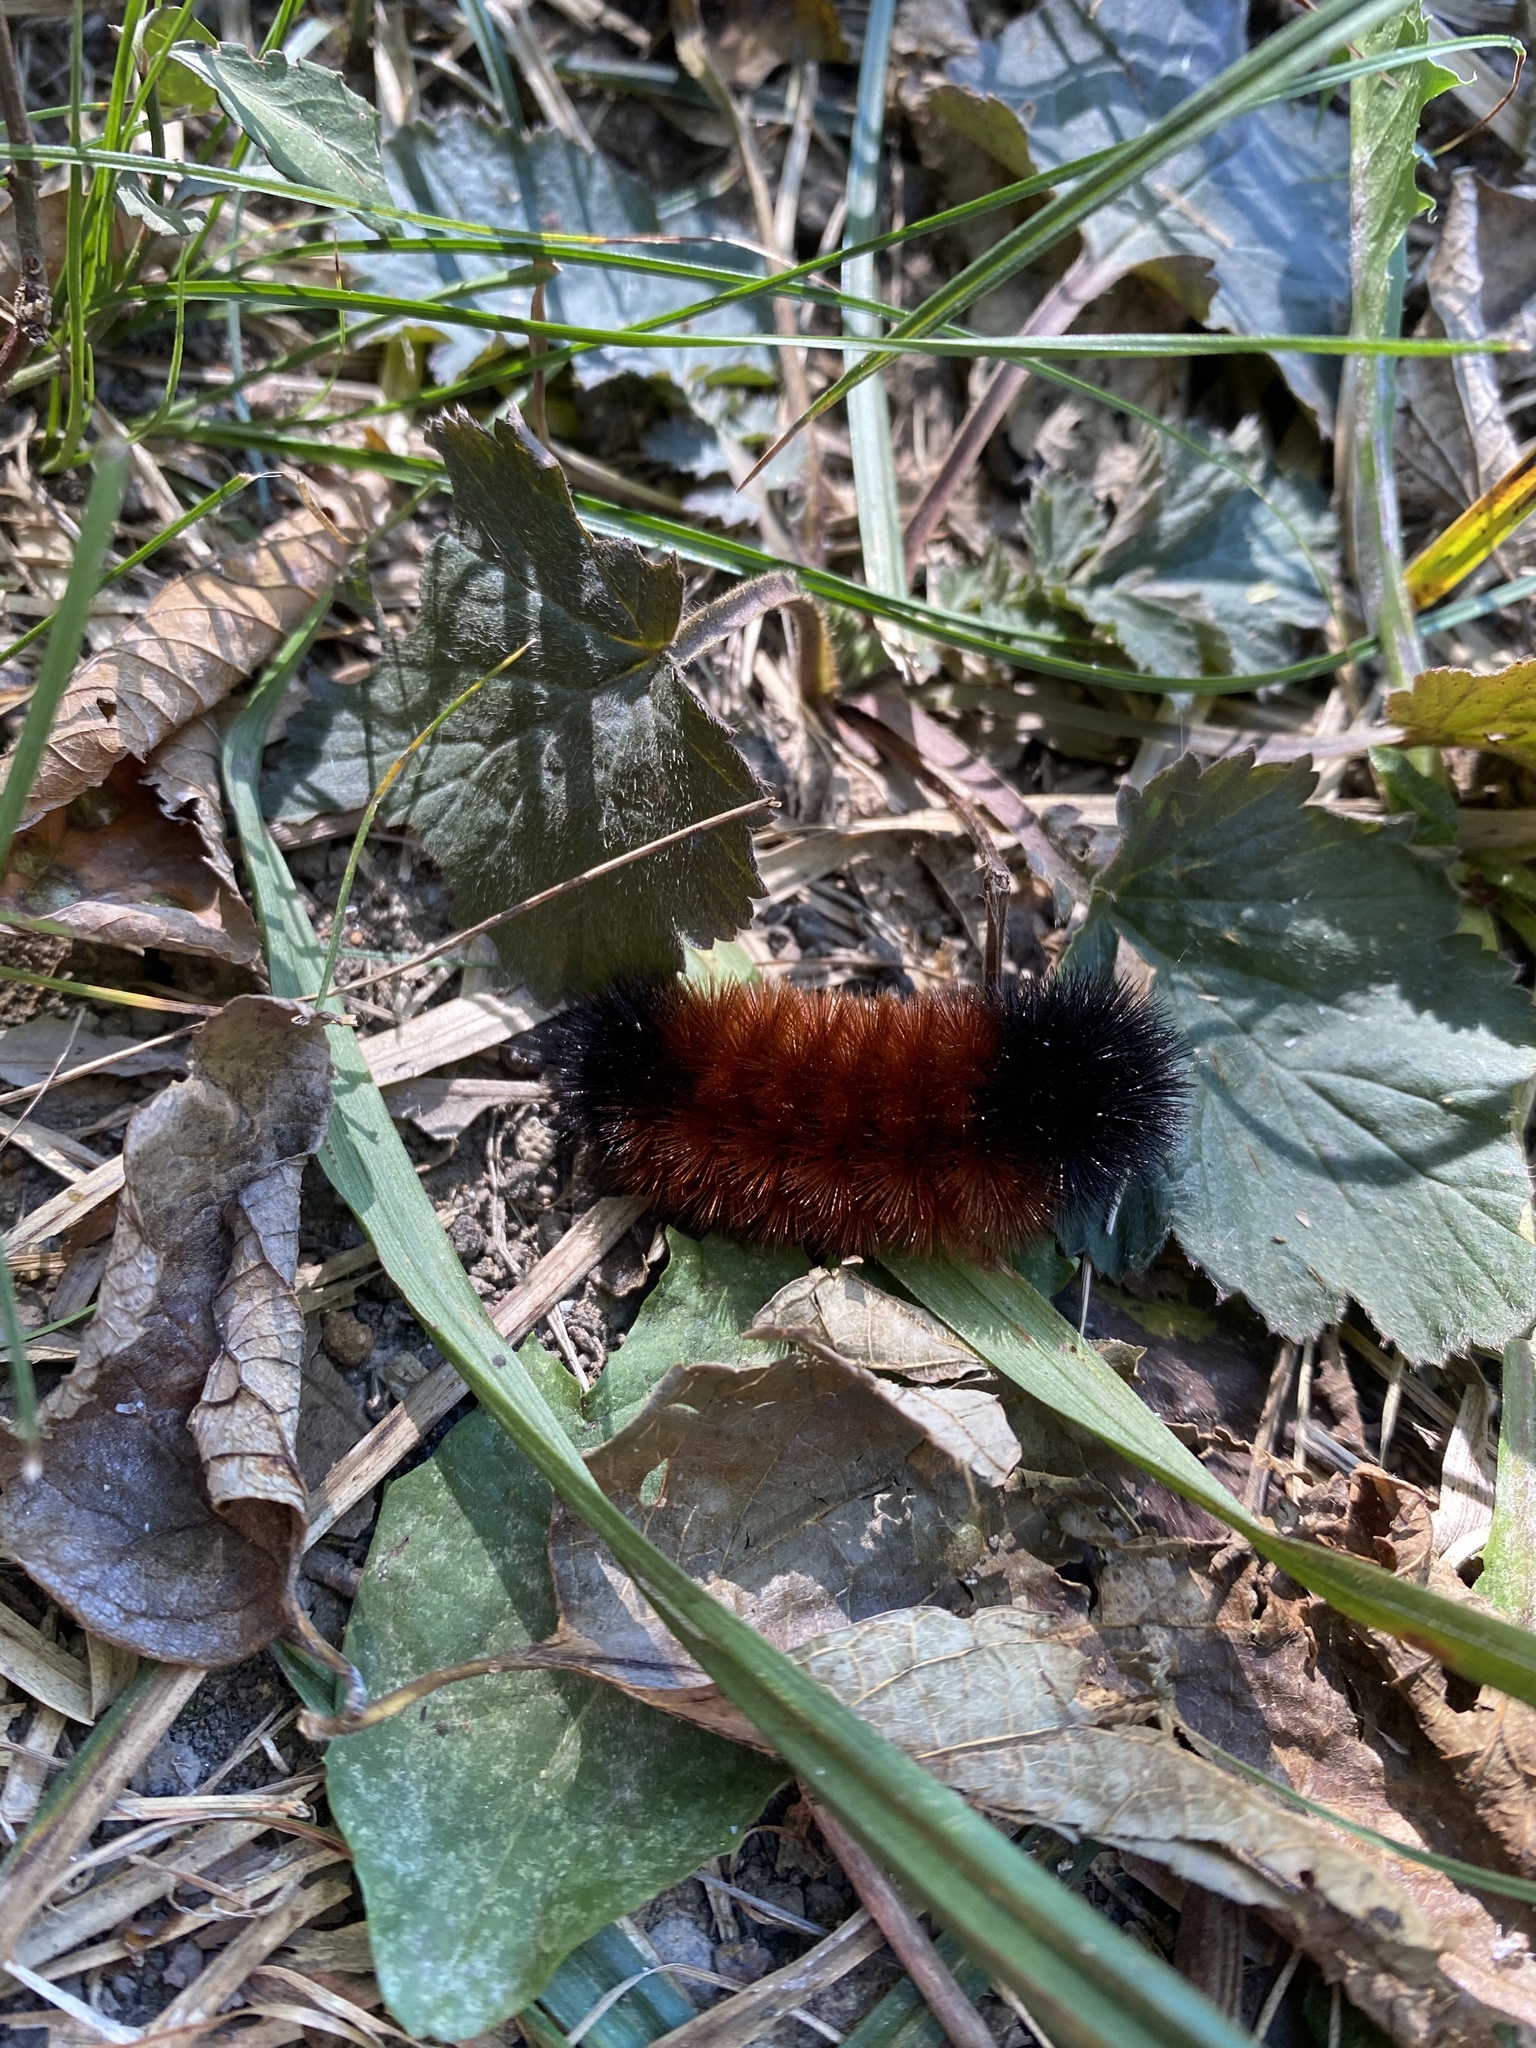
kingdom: Animalia
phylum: Arthropoda
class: Insecta
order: Lepidoptera
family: Erebidae
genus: Pyrrharctia
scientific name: Pyrrharctia isabella
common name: Isabella tiger moth
